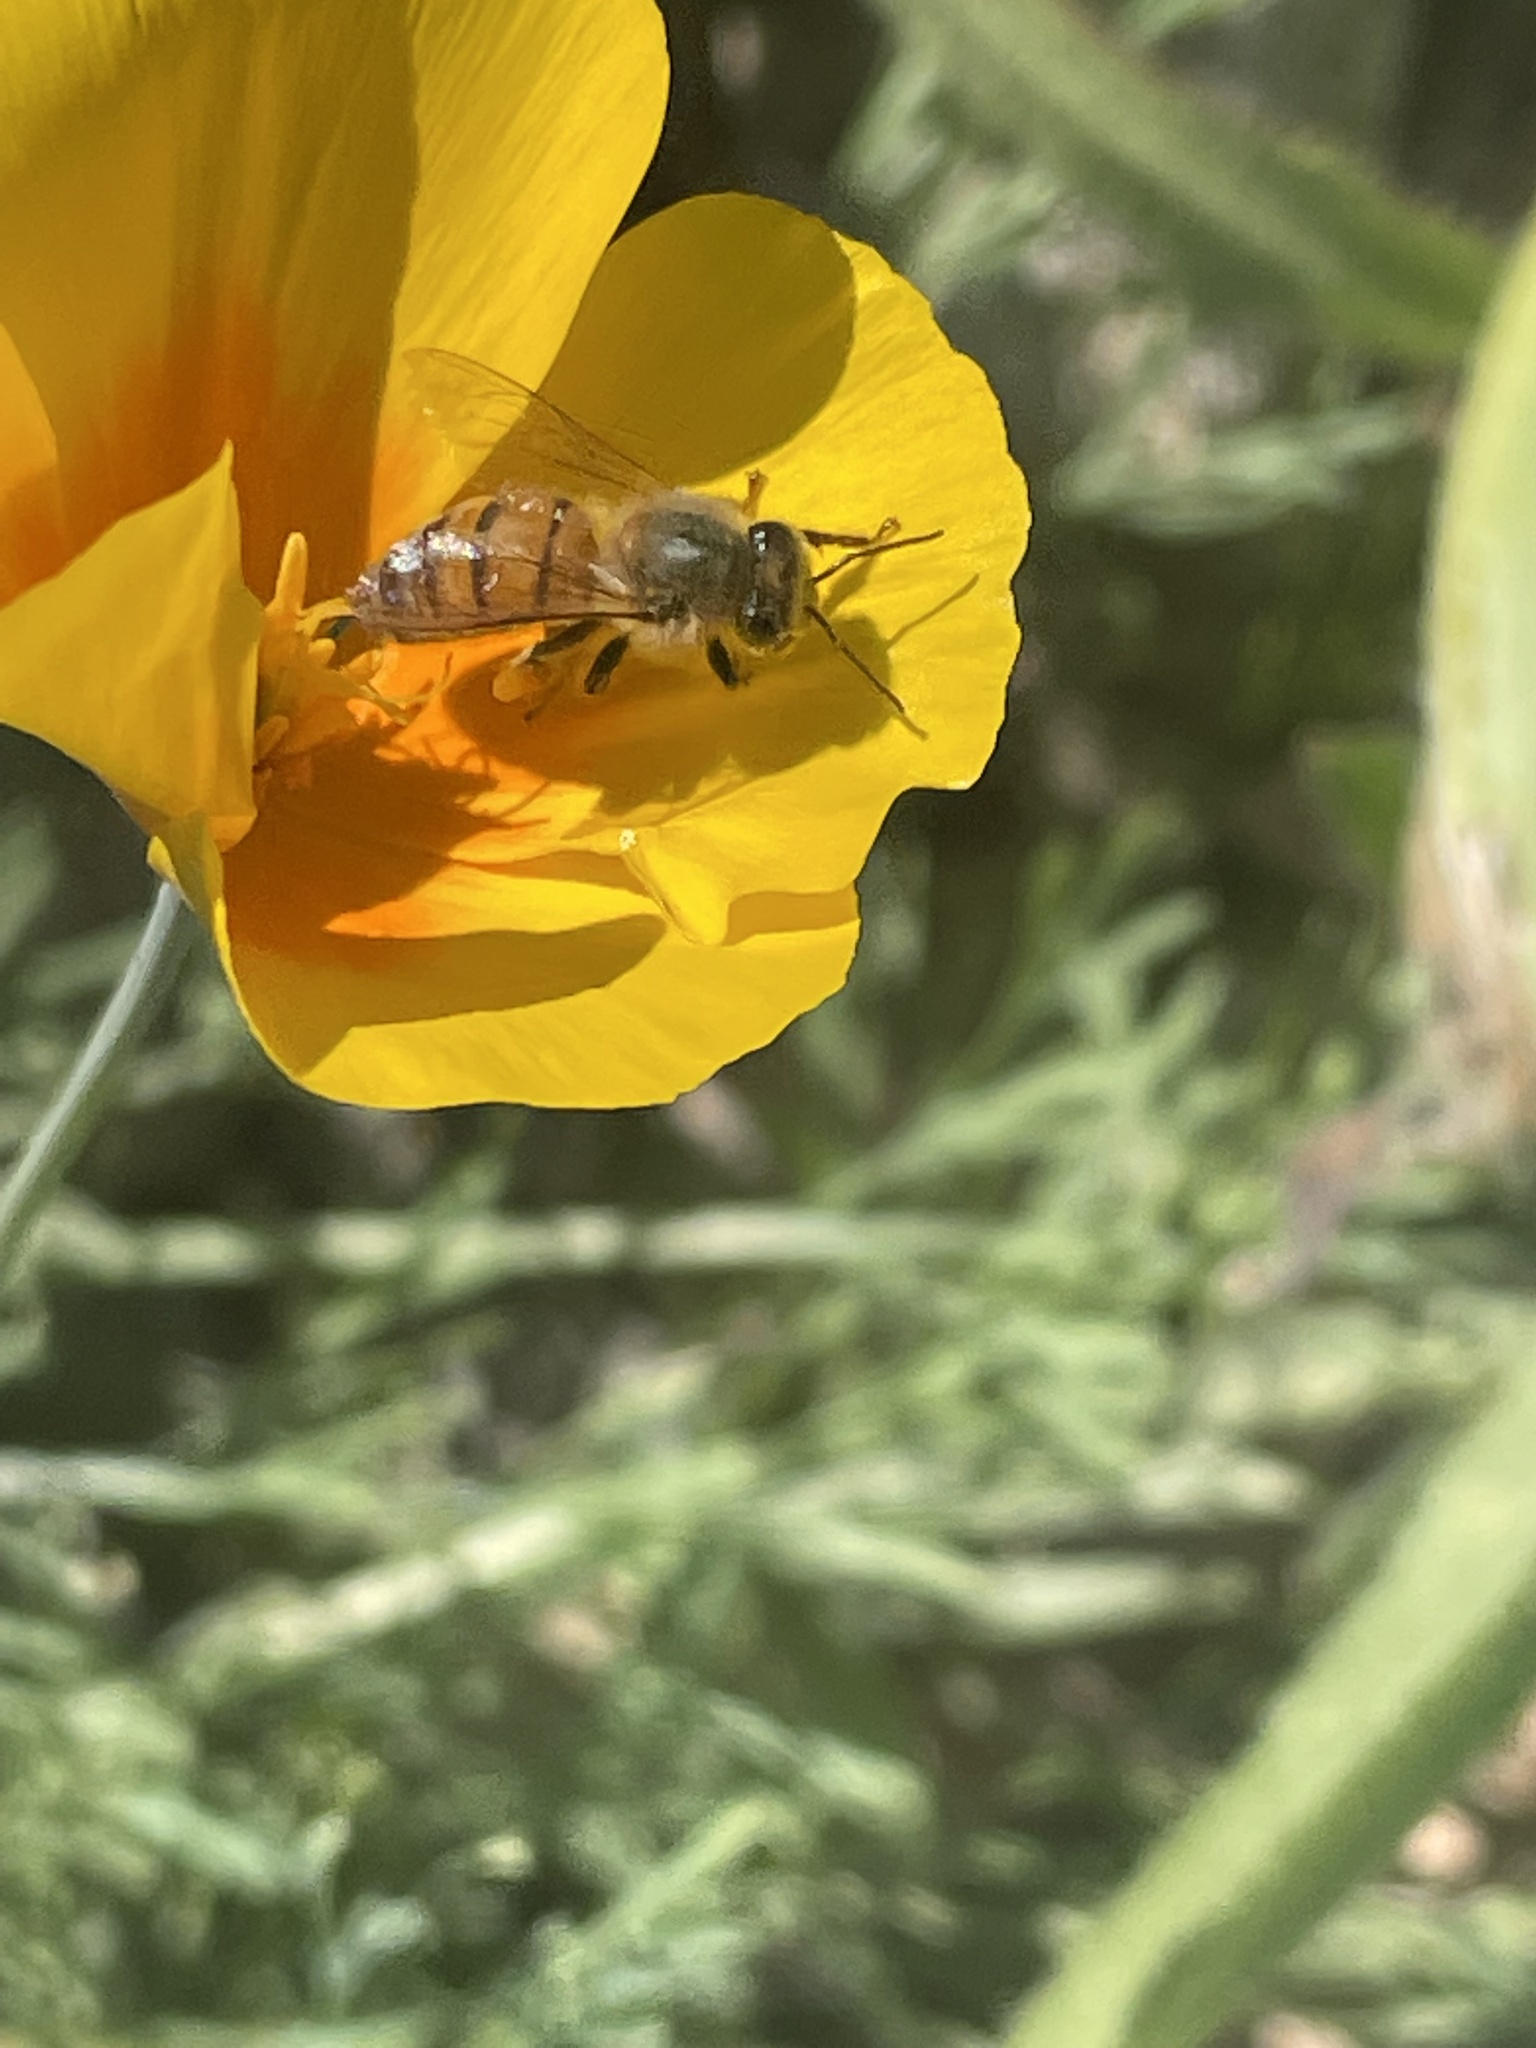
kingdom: Animalia
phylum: Arthropoda
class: Insecta
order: Hymenoptera
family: Apidae
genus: Apis
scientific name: Apis mellifera
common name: Honey bee
